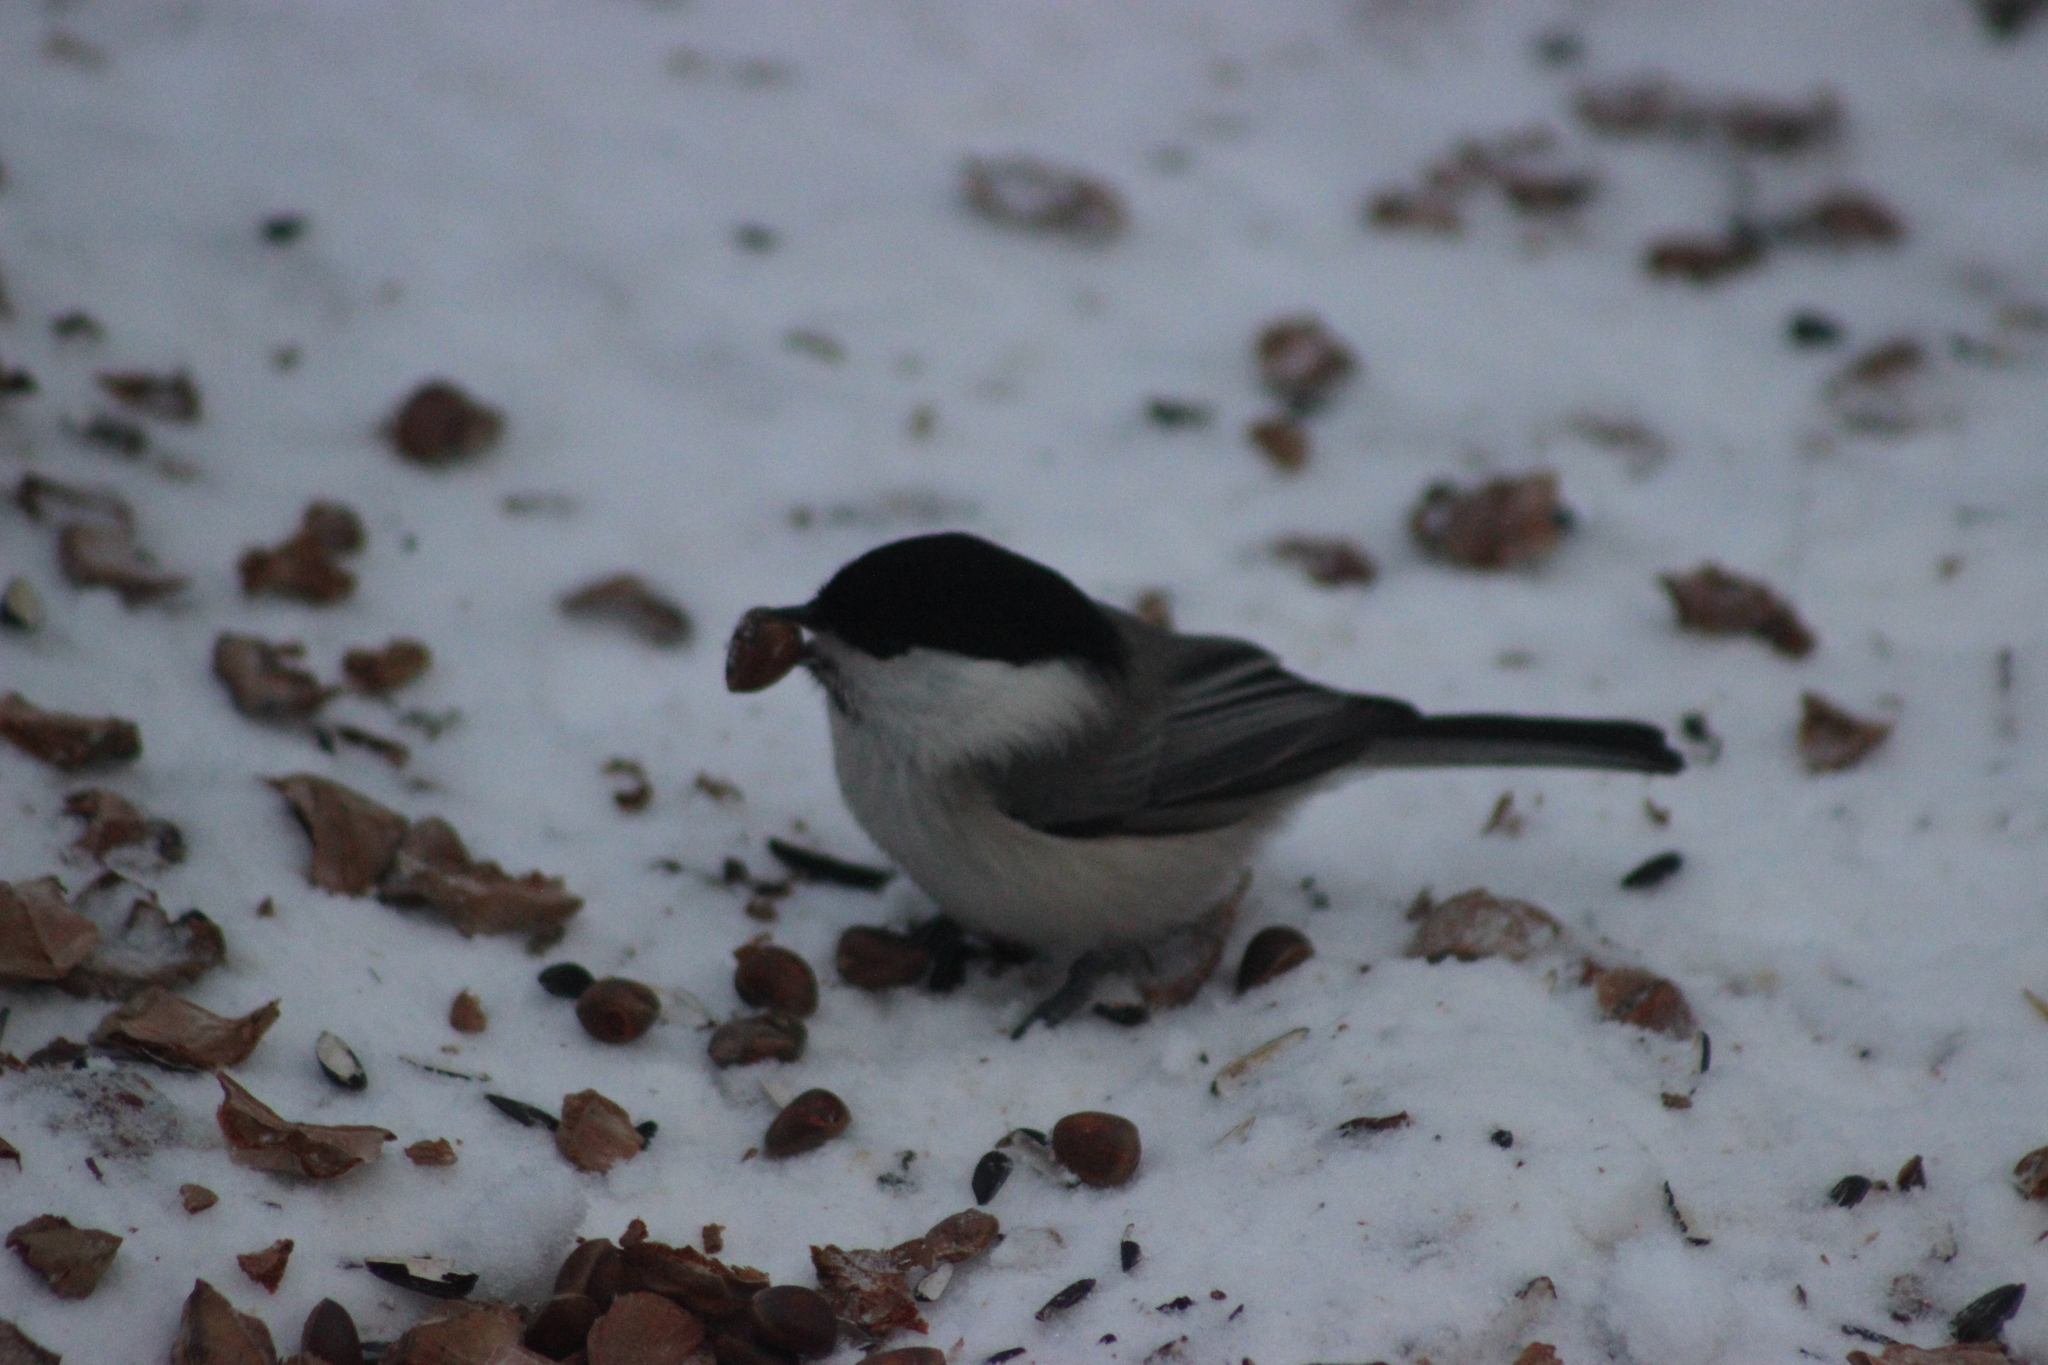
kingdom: Animalia
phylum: Chordata
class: Aves
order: Passeriformes
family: Paridae
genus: Poecile
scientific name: Poecile montanus
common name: Willow tit
